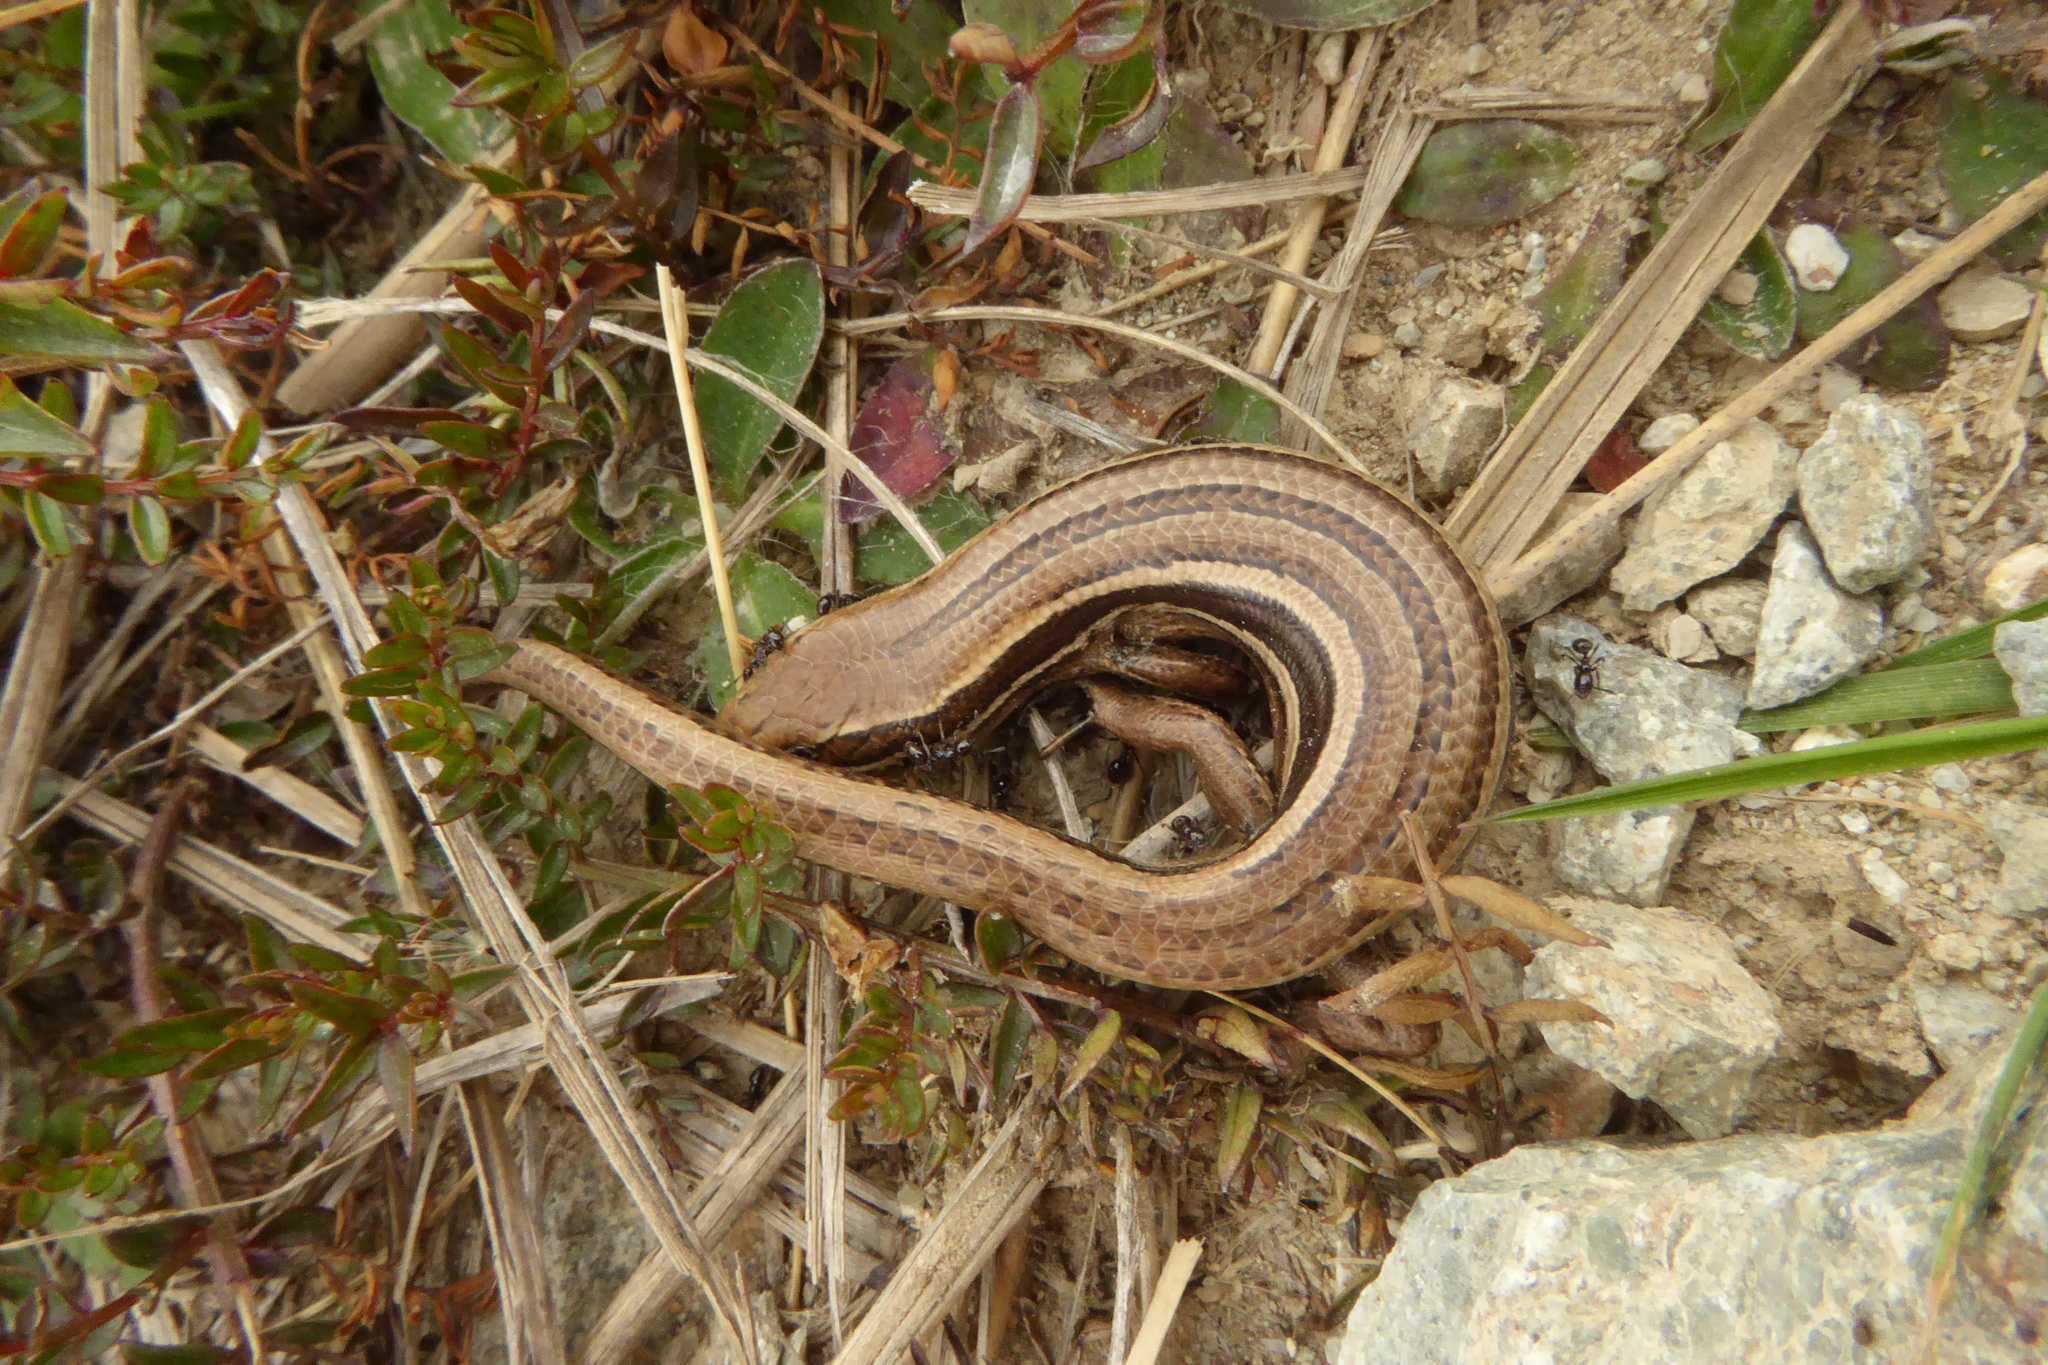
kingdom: Animalia
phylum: Chordata
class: Squamata
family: Scincidae
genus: Oligosoma
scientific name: Oligosoma maccanni
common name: Mccann’s skink
